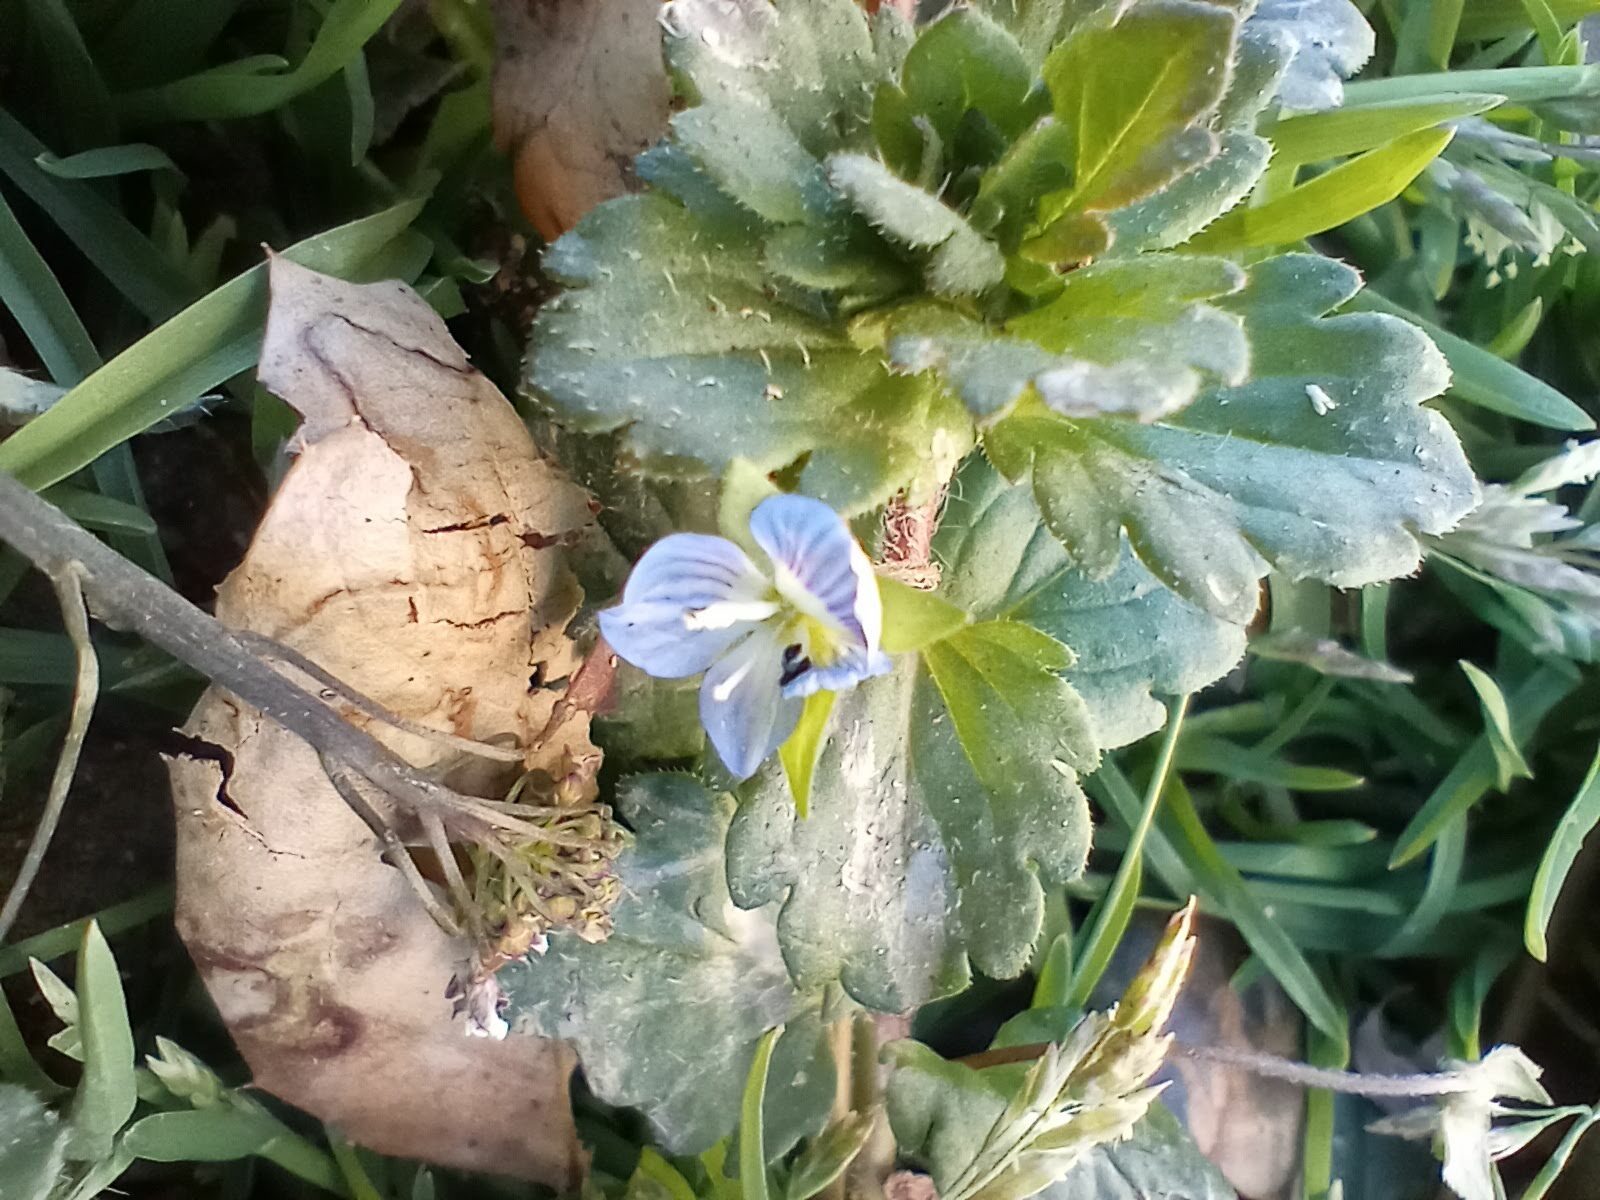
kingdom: Plantae
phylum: Tracheophyta
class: Magnoliopsida
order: Lamiales
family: Plantaginaceae
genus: Veronica
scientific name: Veronica persica
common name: Common field-speedwell
